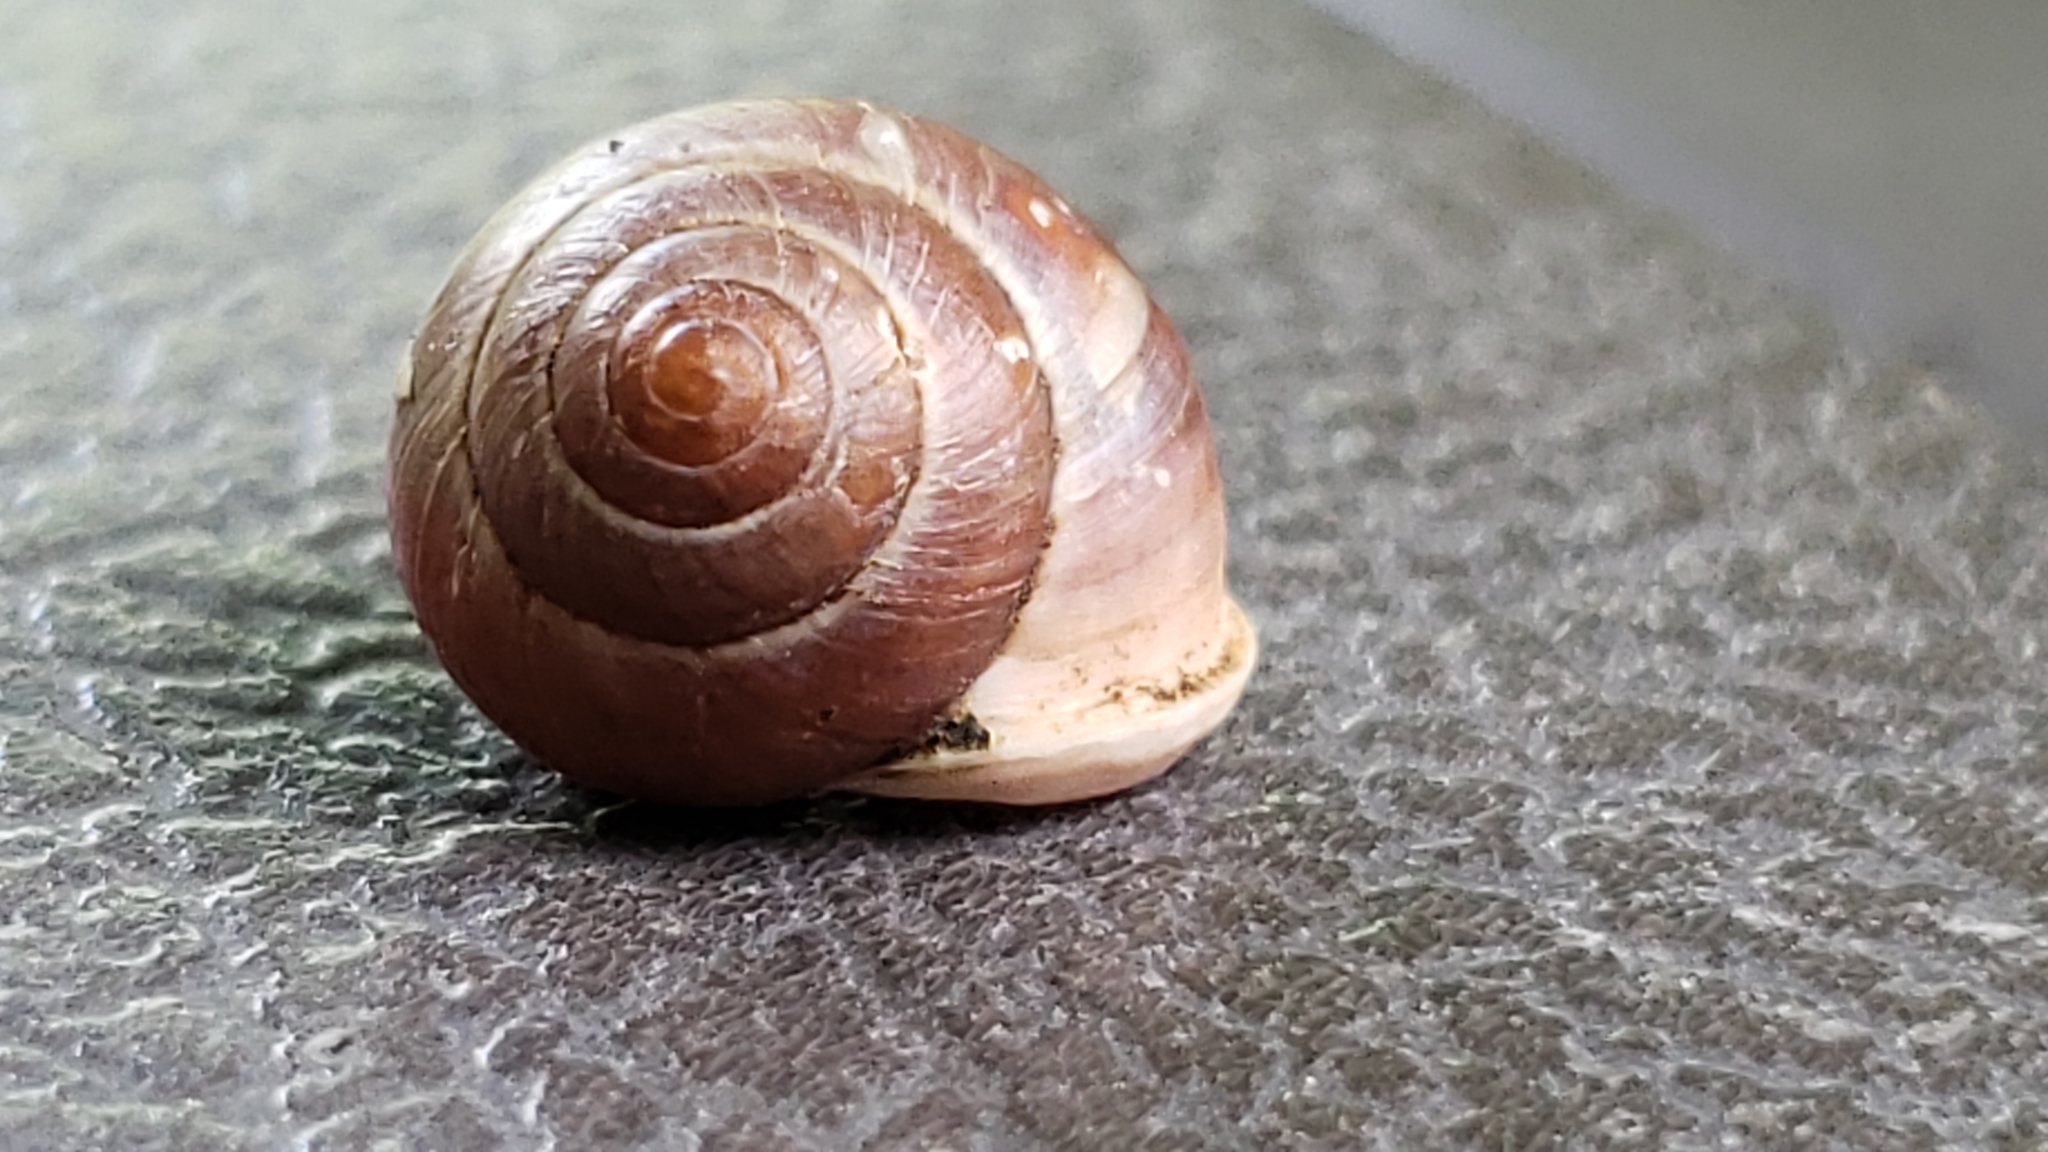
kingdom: Animalia
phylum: Mollusca
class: Gastropoda
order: Cycloneritida
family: Helicinidae
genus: Helicina
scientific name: Helicina orbiculata
